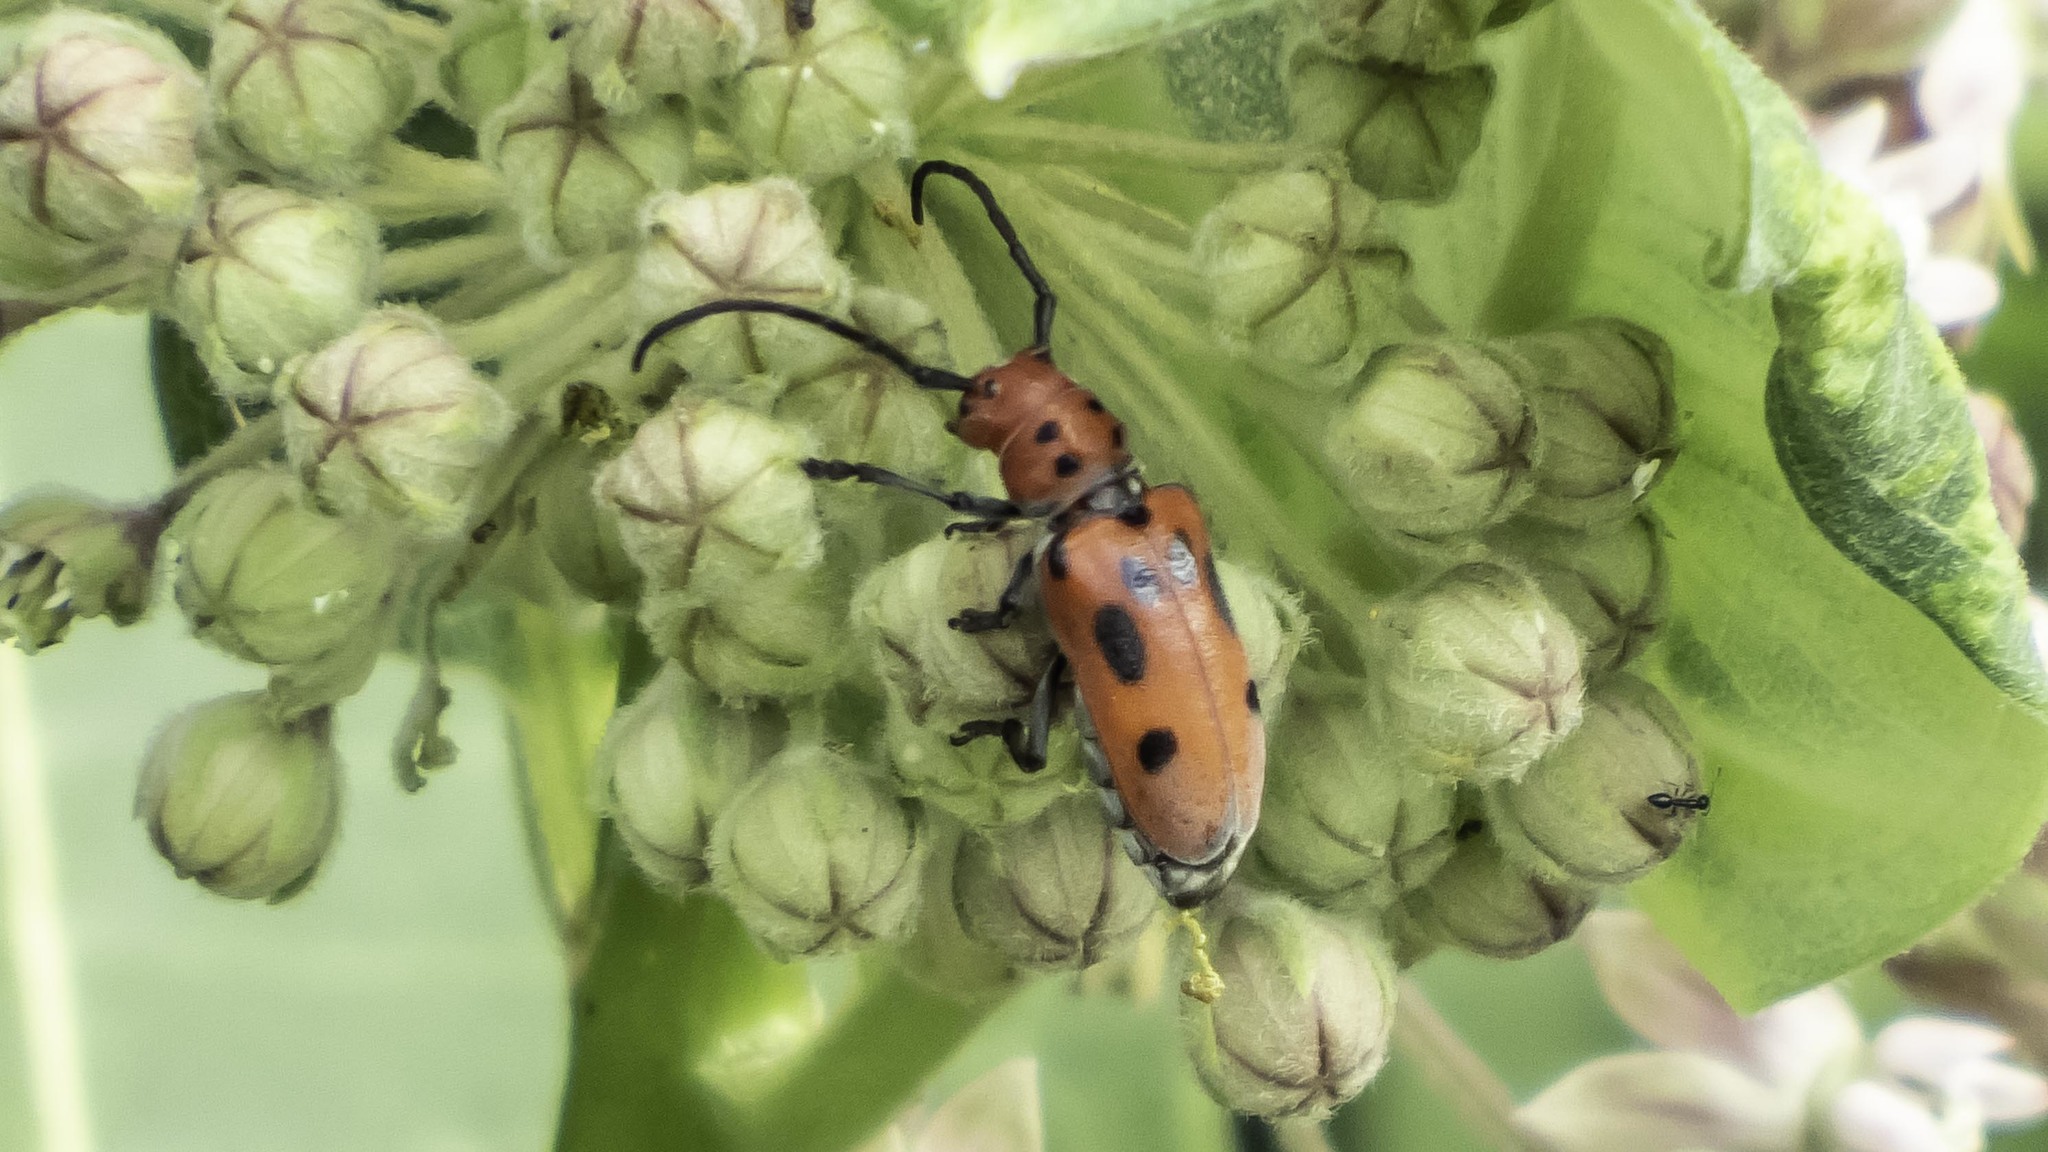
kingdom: Animalia
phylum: Arthropoda
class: Insecta
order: Coleoptera
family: Cerambycidae
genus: Tetraopes
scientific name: Tetraopes tetrophthalmus
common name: Red milkweed beetle
